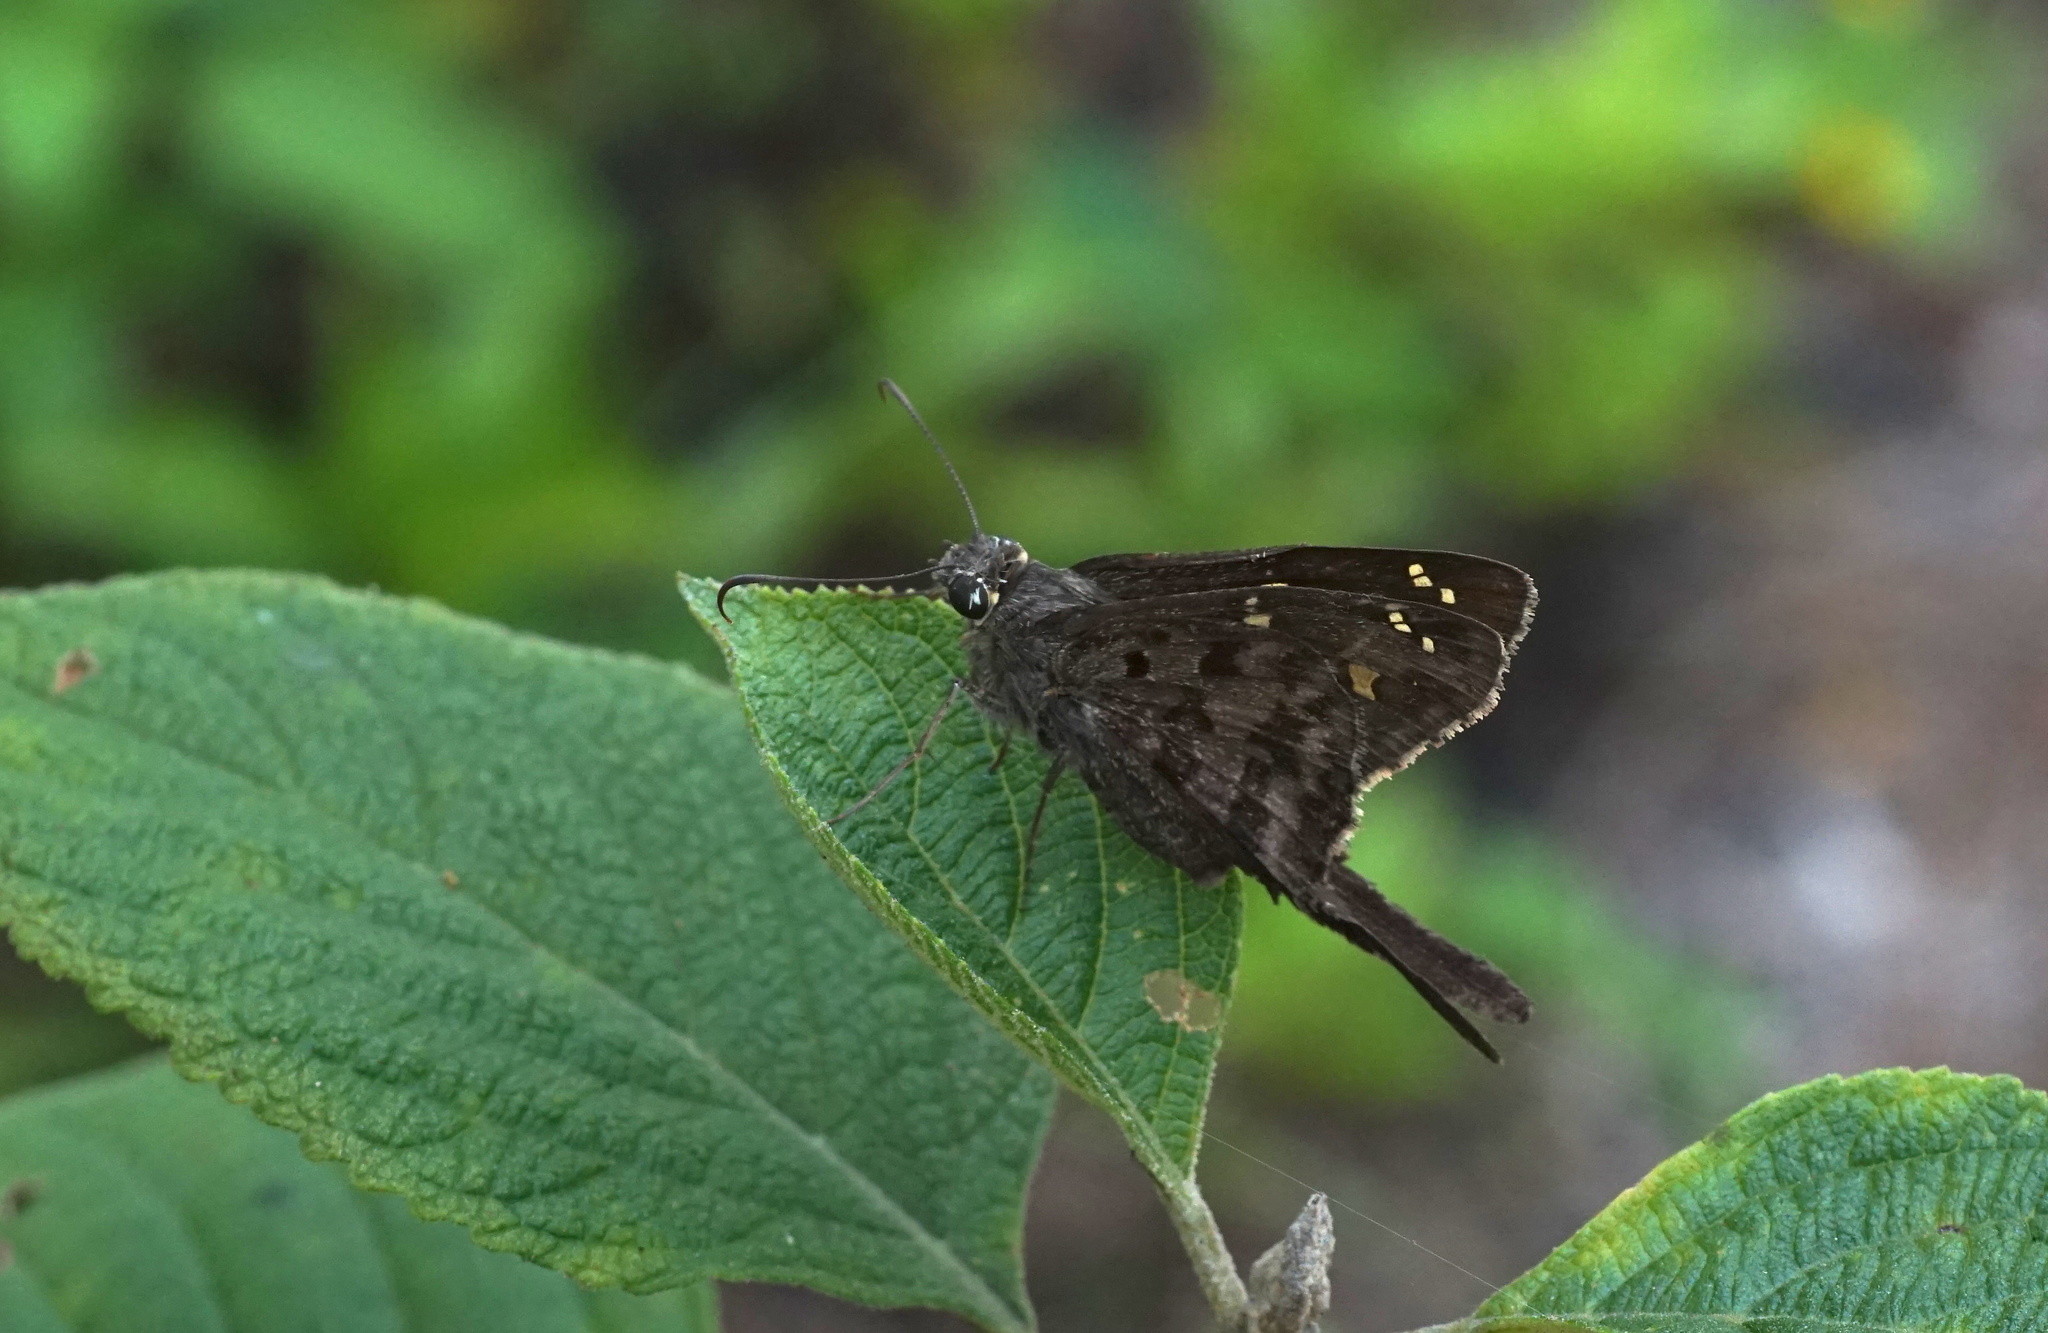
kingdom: Animalia
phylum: Arthropoda
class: Insecta
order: Lepidoptera
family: Hesperiidae
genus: Thorybes
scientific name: Thorybes
